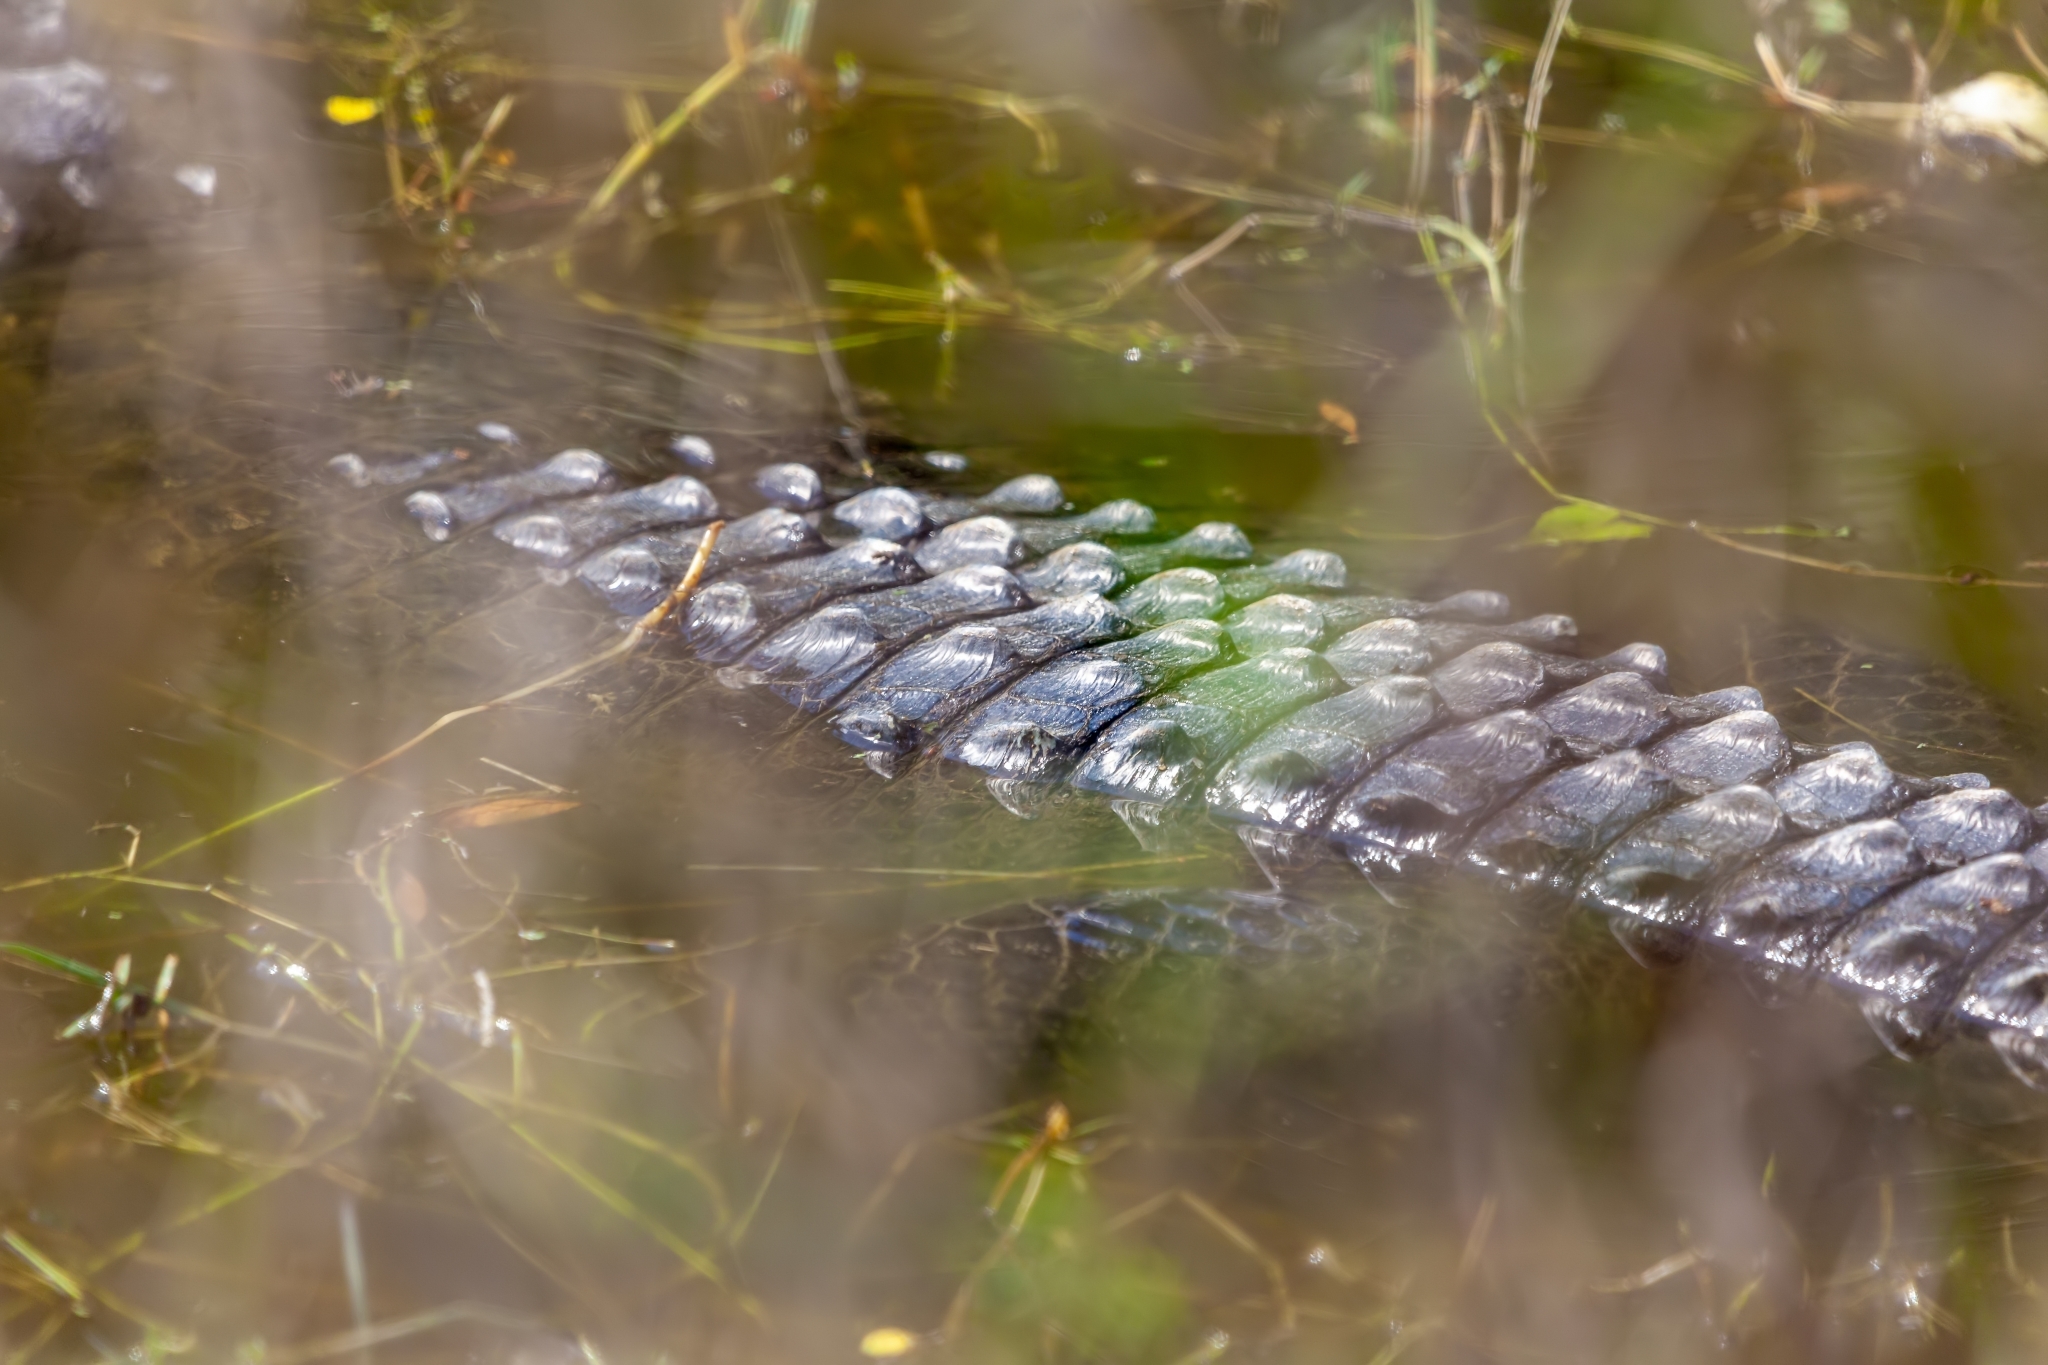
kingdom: Animalia
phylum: Chordata
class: Crocodylia
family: Alligatoridae
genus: Alligator
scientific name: Alligator mississippiensis
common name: American alligator
